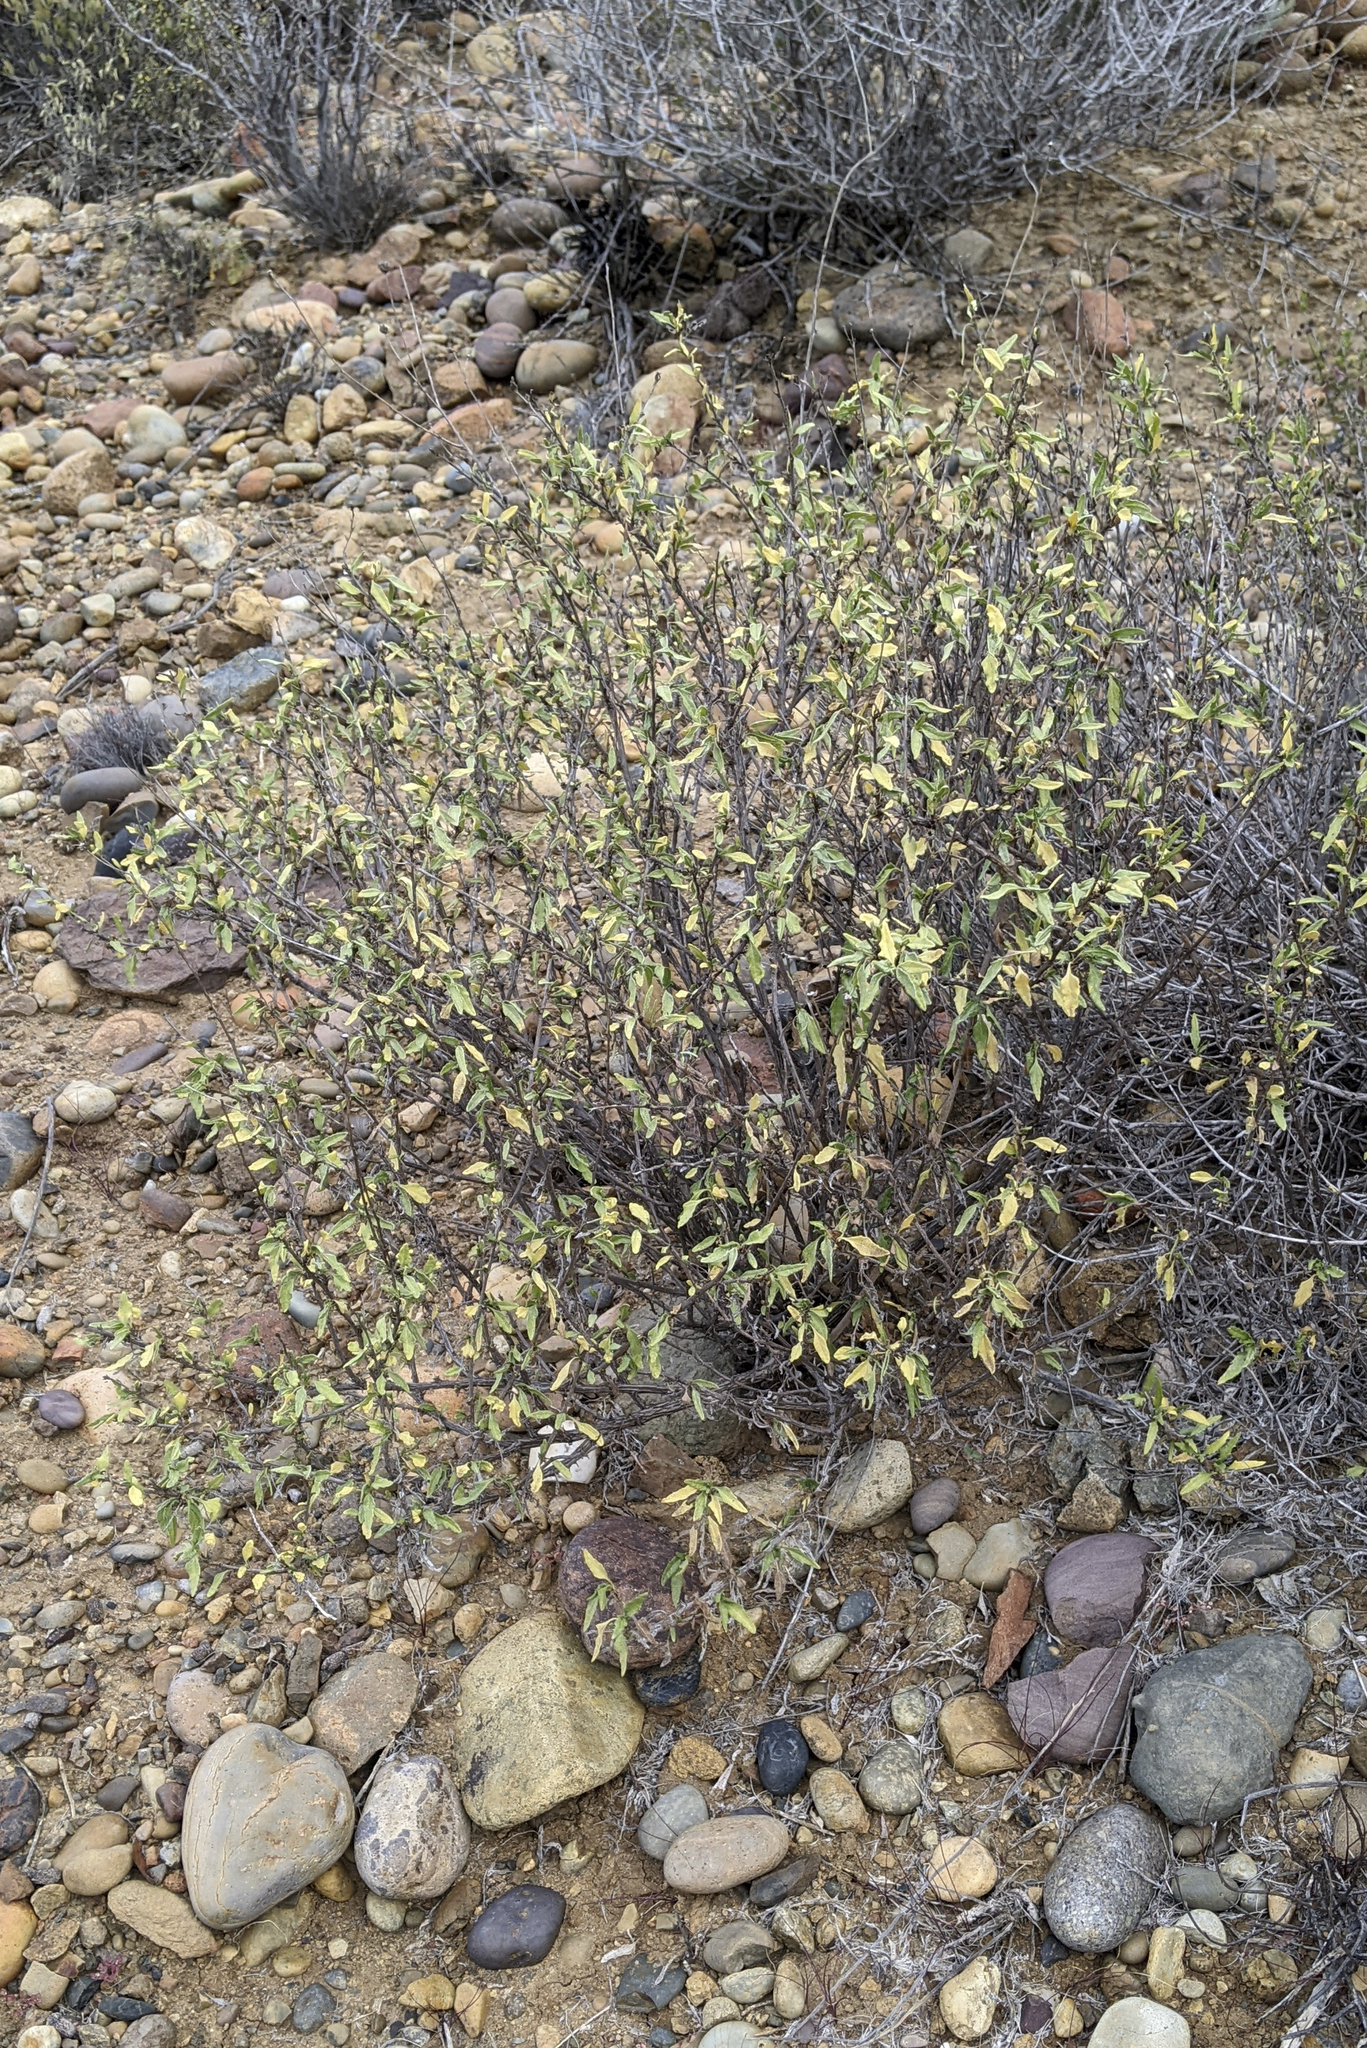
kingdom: Plantae
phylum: Tracheophyta
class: Magnoliopsida
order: Solanales
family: Solanaceae
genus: Solanum
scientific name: Solanum hindsianum
